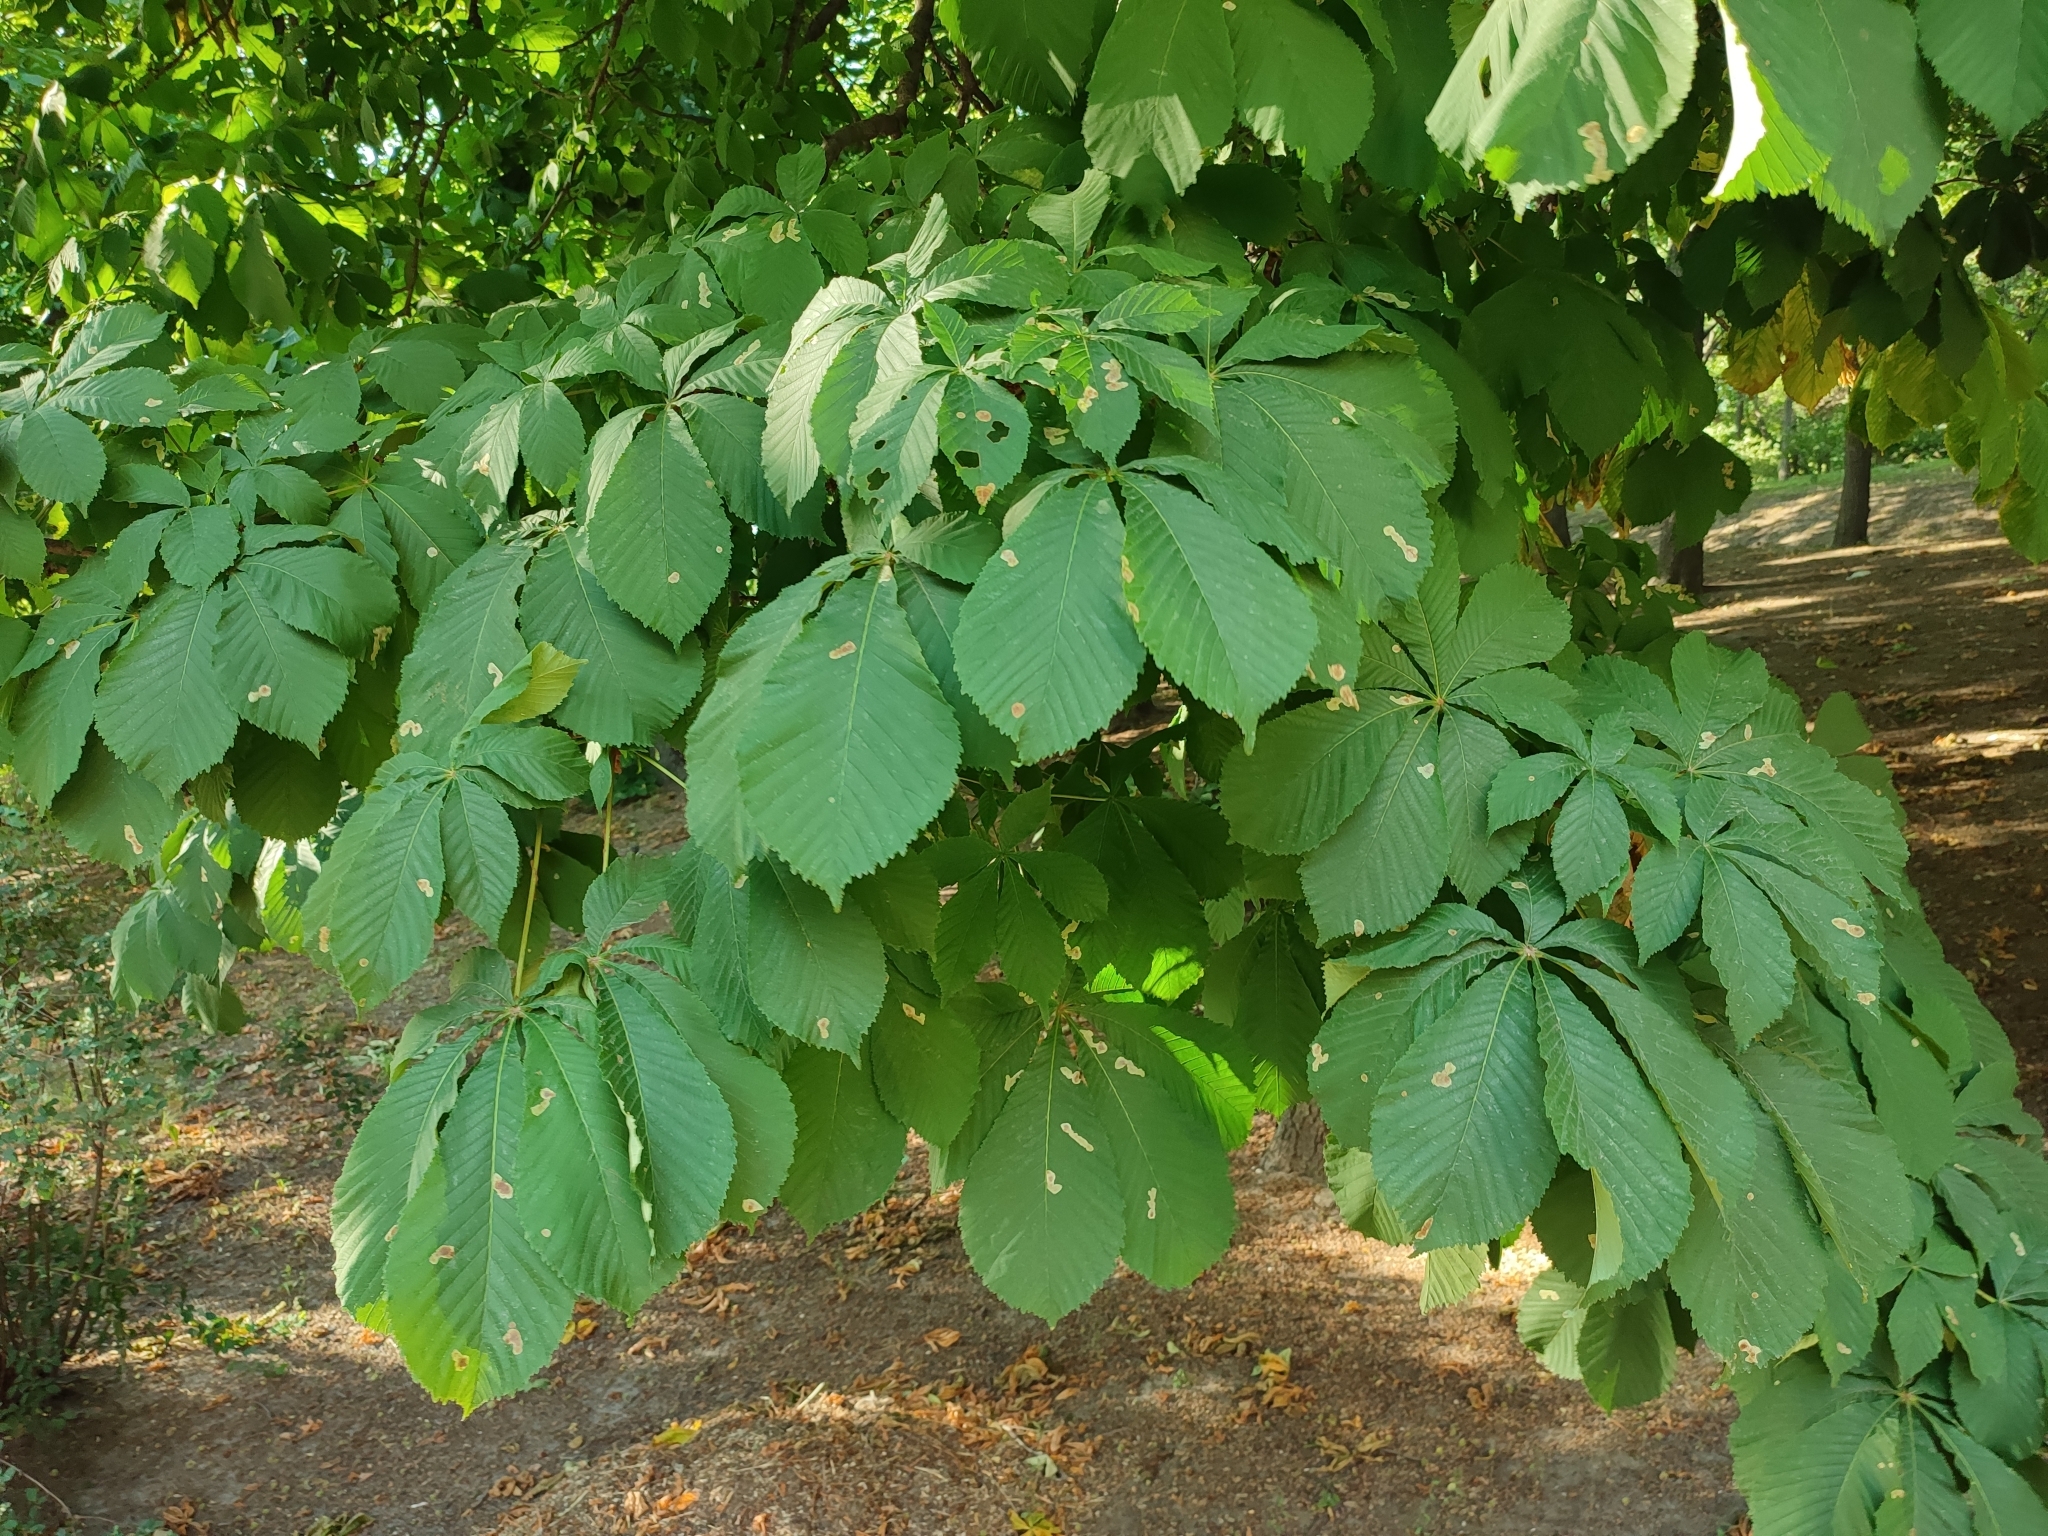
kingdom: Animalia
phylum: Arthropoda
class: Insecta
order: Lepidoptera
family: Gracillariidae
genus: Cameraria
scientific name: Cameraria ohridella
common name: Horse-chestnut leaf-miner
